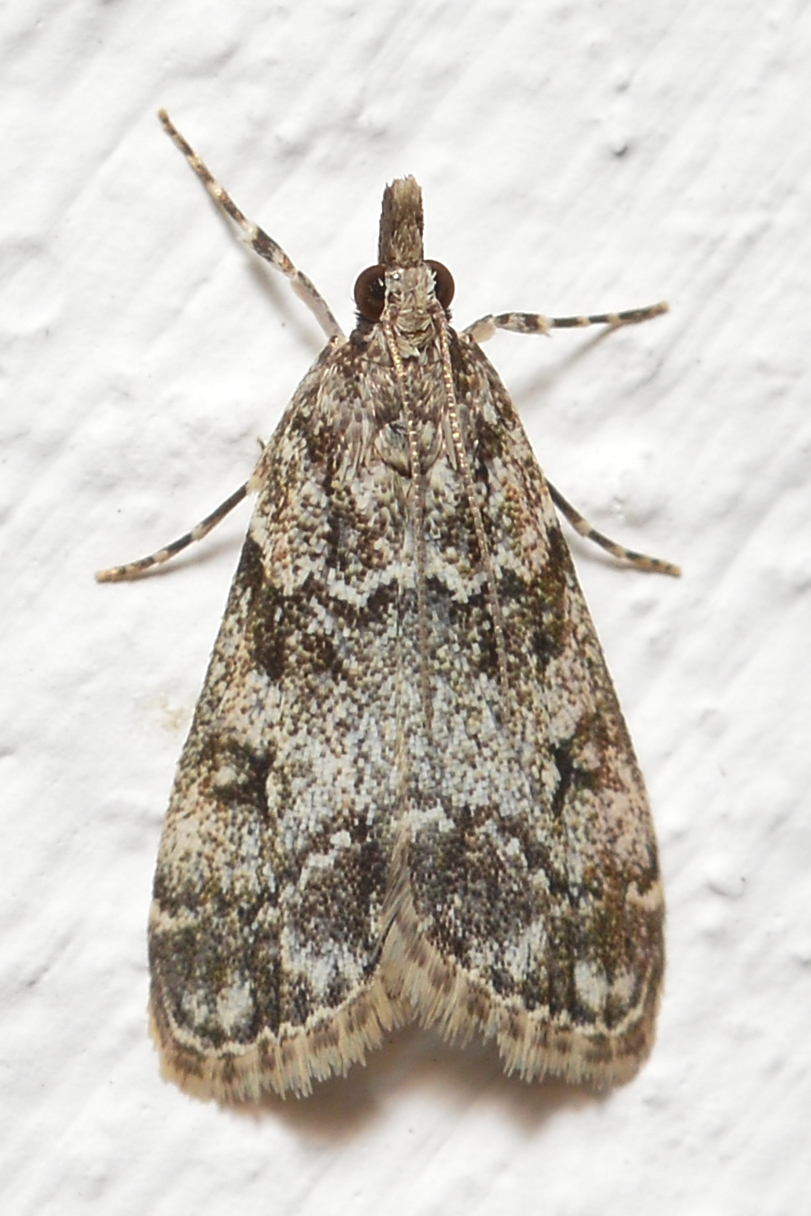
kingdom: Animalia
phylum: Arthropoda
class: Insecta
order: Lepidoptera
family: Crambidae
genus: Eudonia
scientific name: Eudonia lacustrata
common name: Little grey
